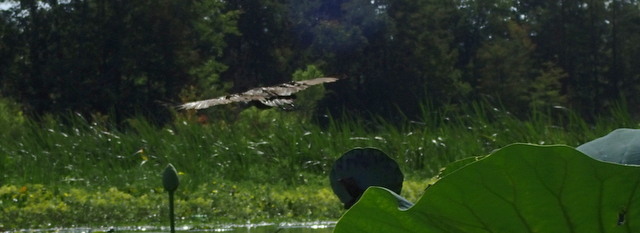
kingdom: Animalia
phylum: Chordata
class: Aves
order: Gruiformes
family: Aramidae
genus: Aramus
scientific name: Aramus guarauna
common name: Limpkin
